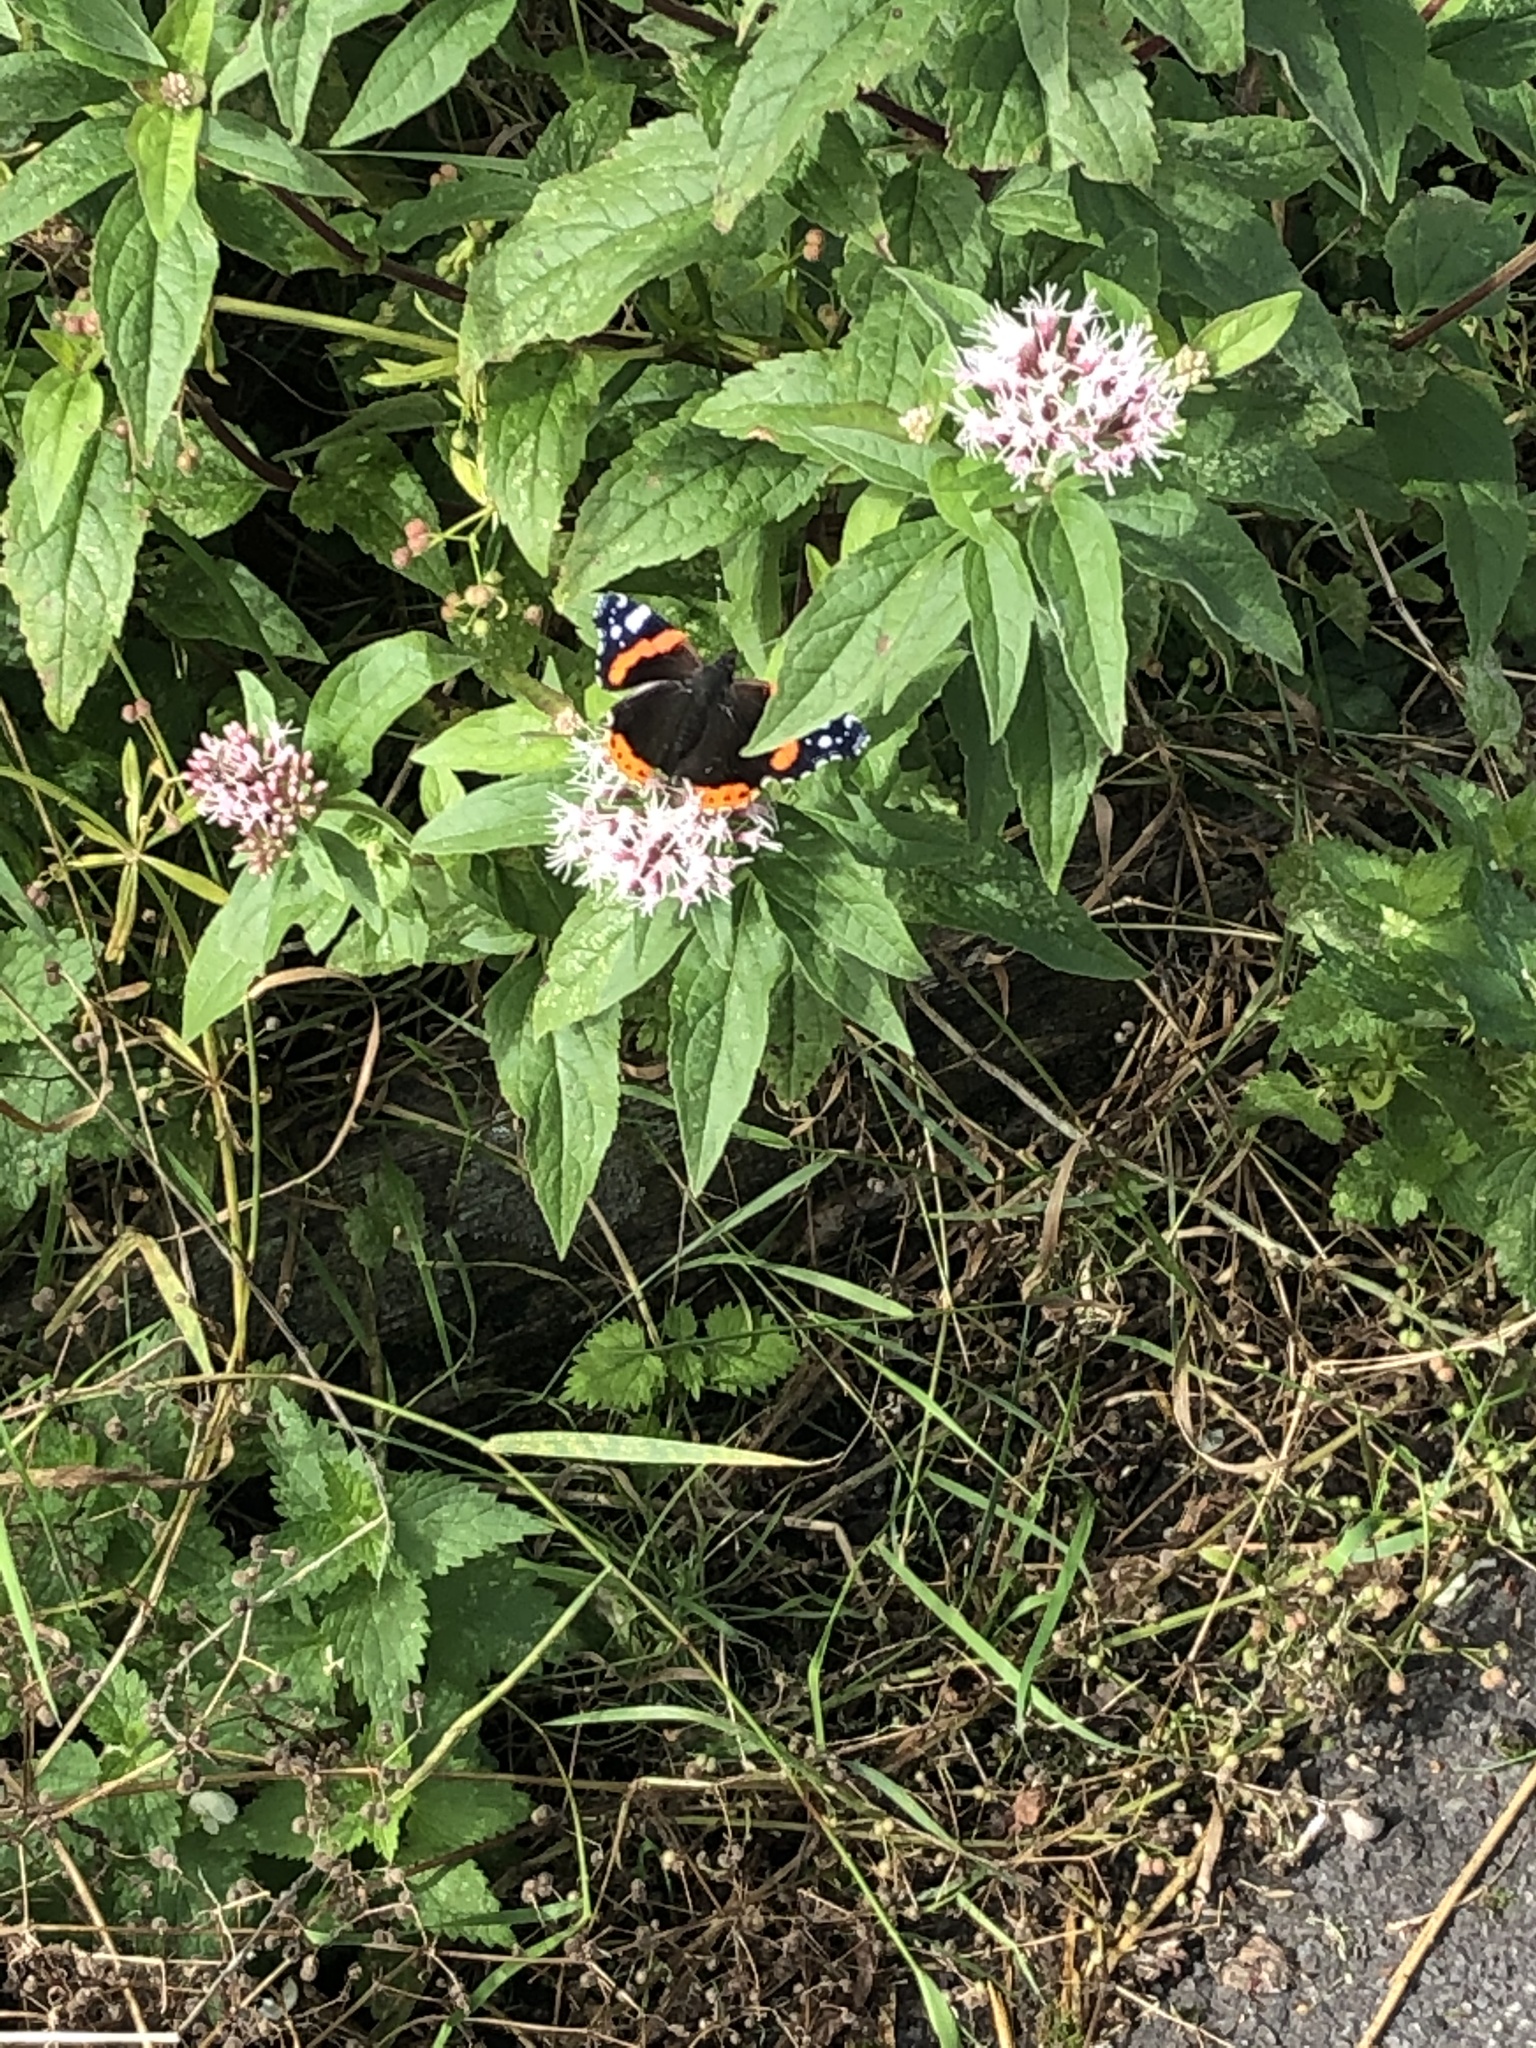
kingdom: Animalia
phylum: Arthropoda
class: Insecta
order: Lepidoptera
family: Nymphalidae
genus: Vanessa
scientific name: Vanessa atalanta
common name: Red admiral
